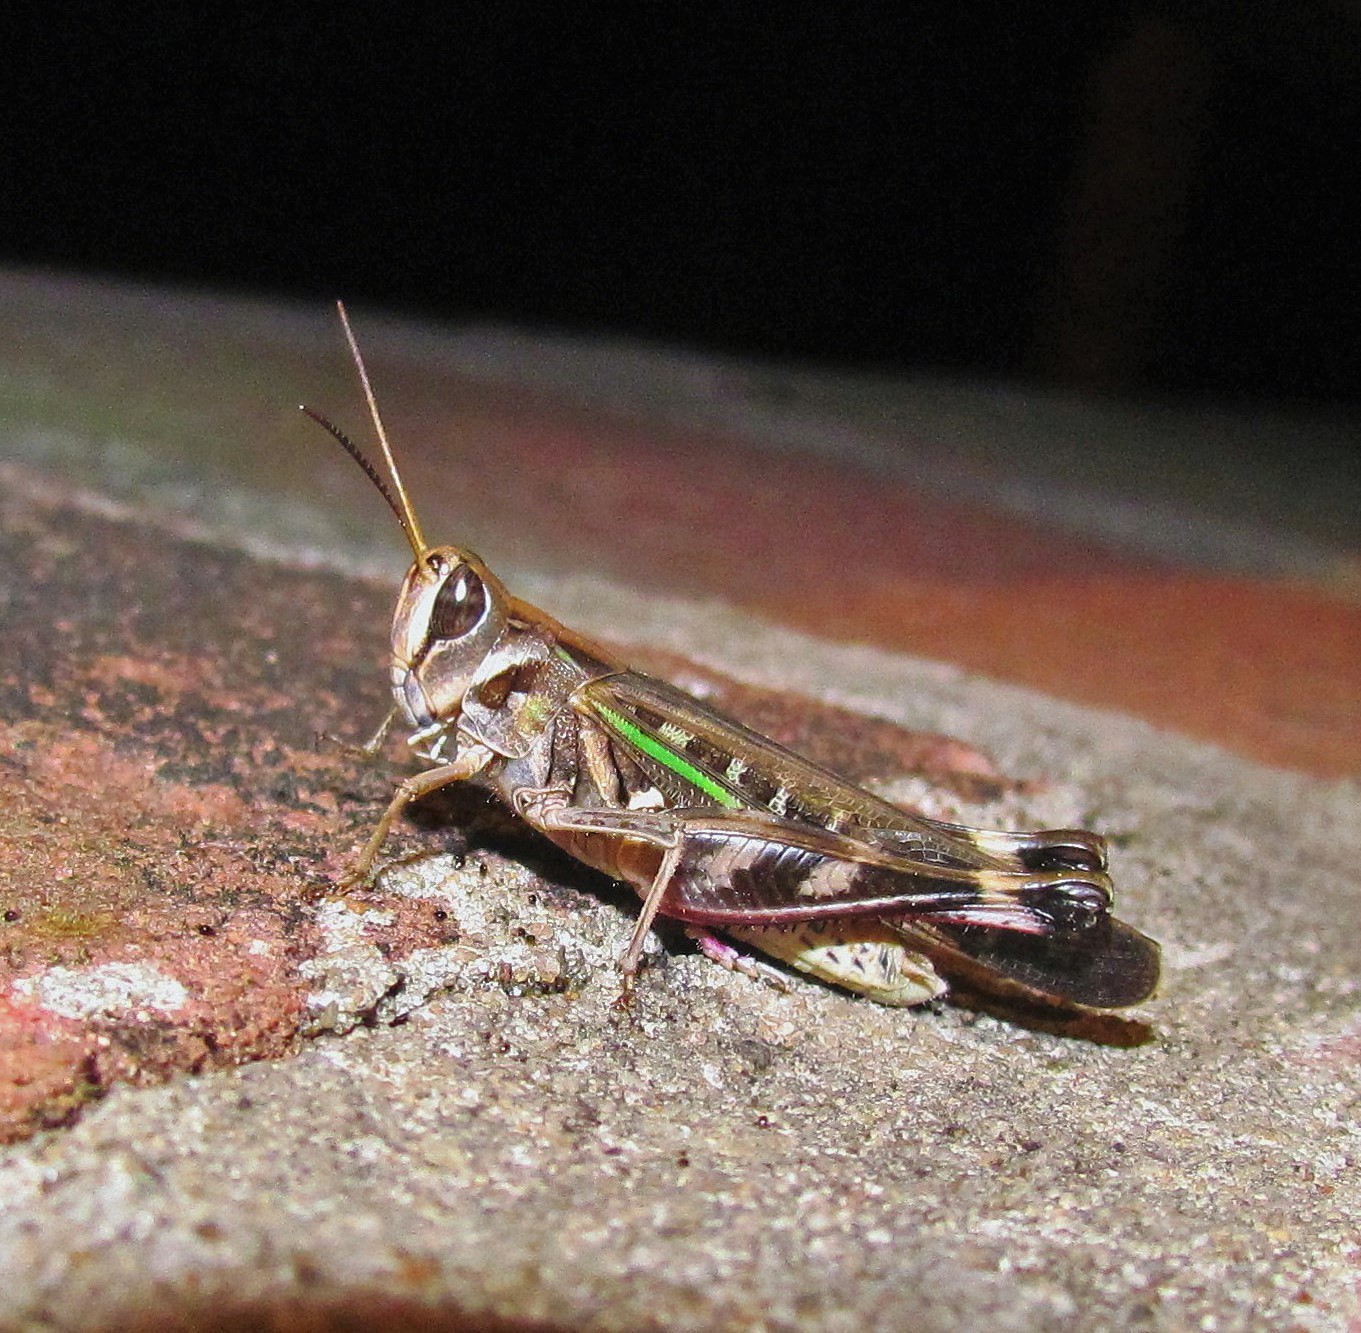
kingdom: Animalia
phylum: Arthropoda
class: Insecta
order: Orthoptera
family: Acrididae
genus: Rhammatocerus
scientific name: Rhammatocerus pictus
